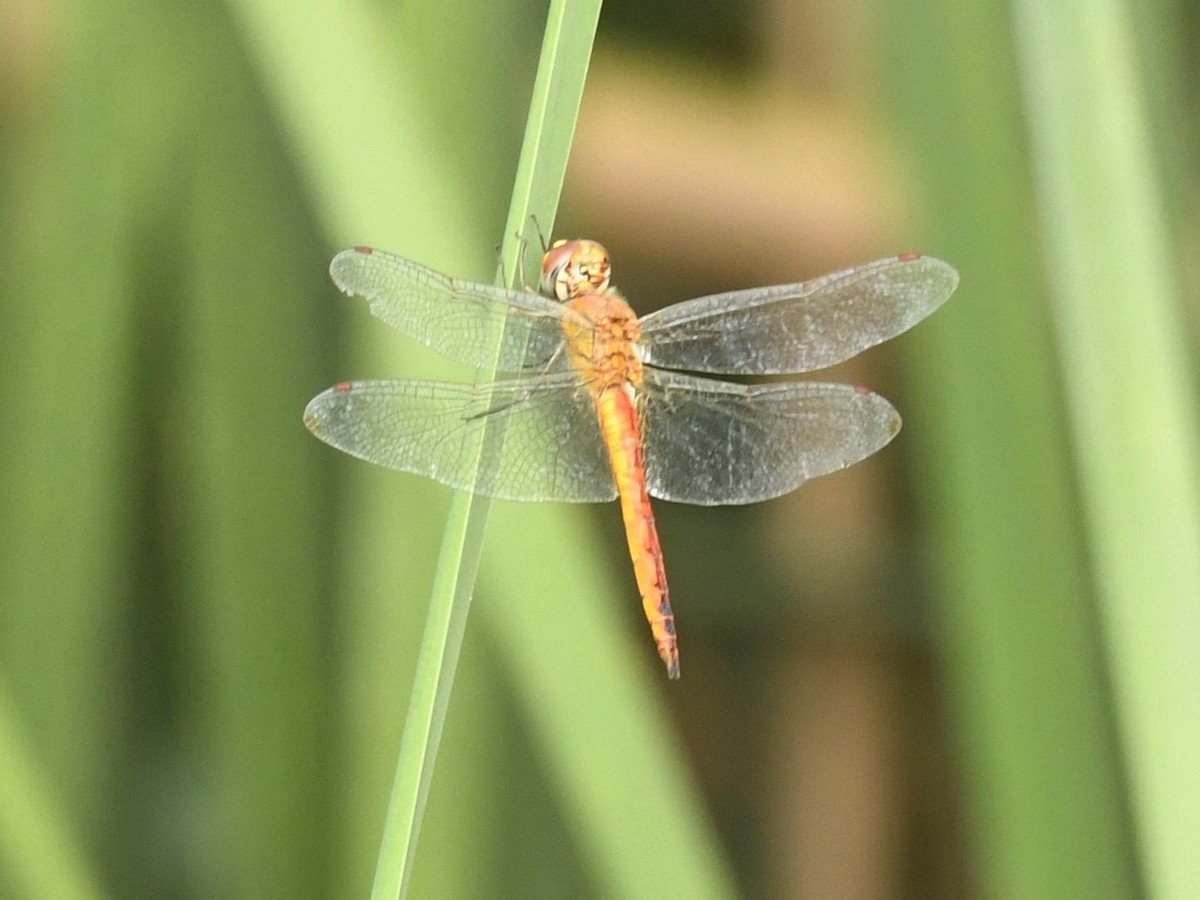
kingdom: Animalia
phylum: Arthropoda
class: Insecta
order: Odonata
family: Libellulidae
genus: Pantala
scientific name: Pantala flavescens
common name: Wandering glider
